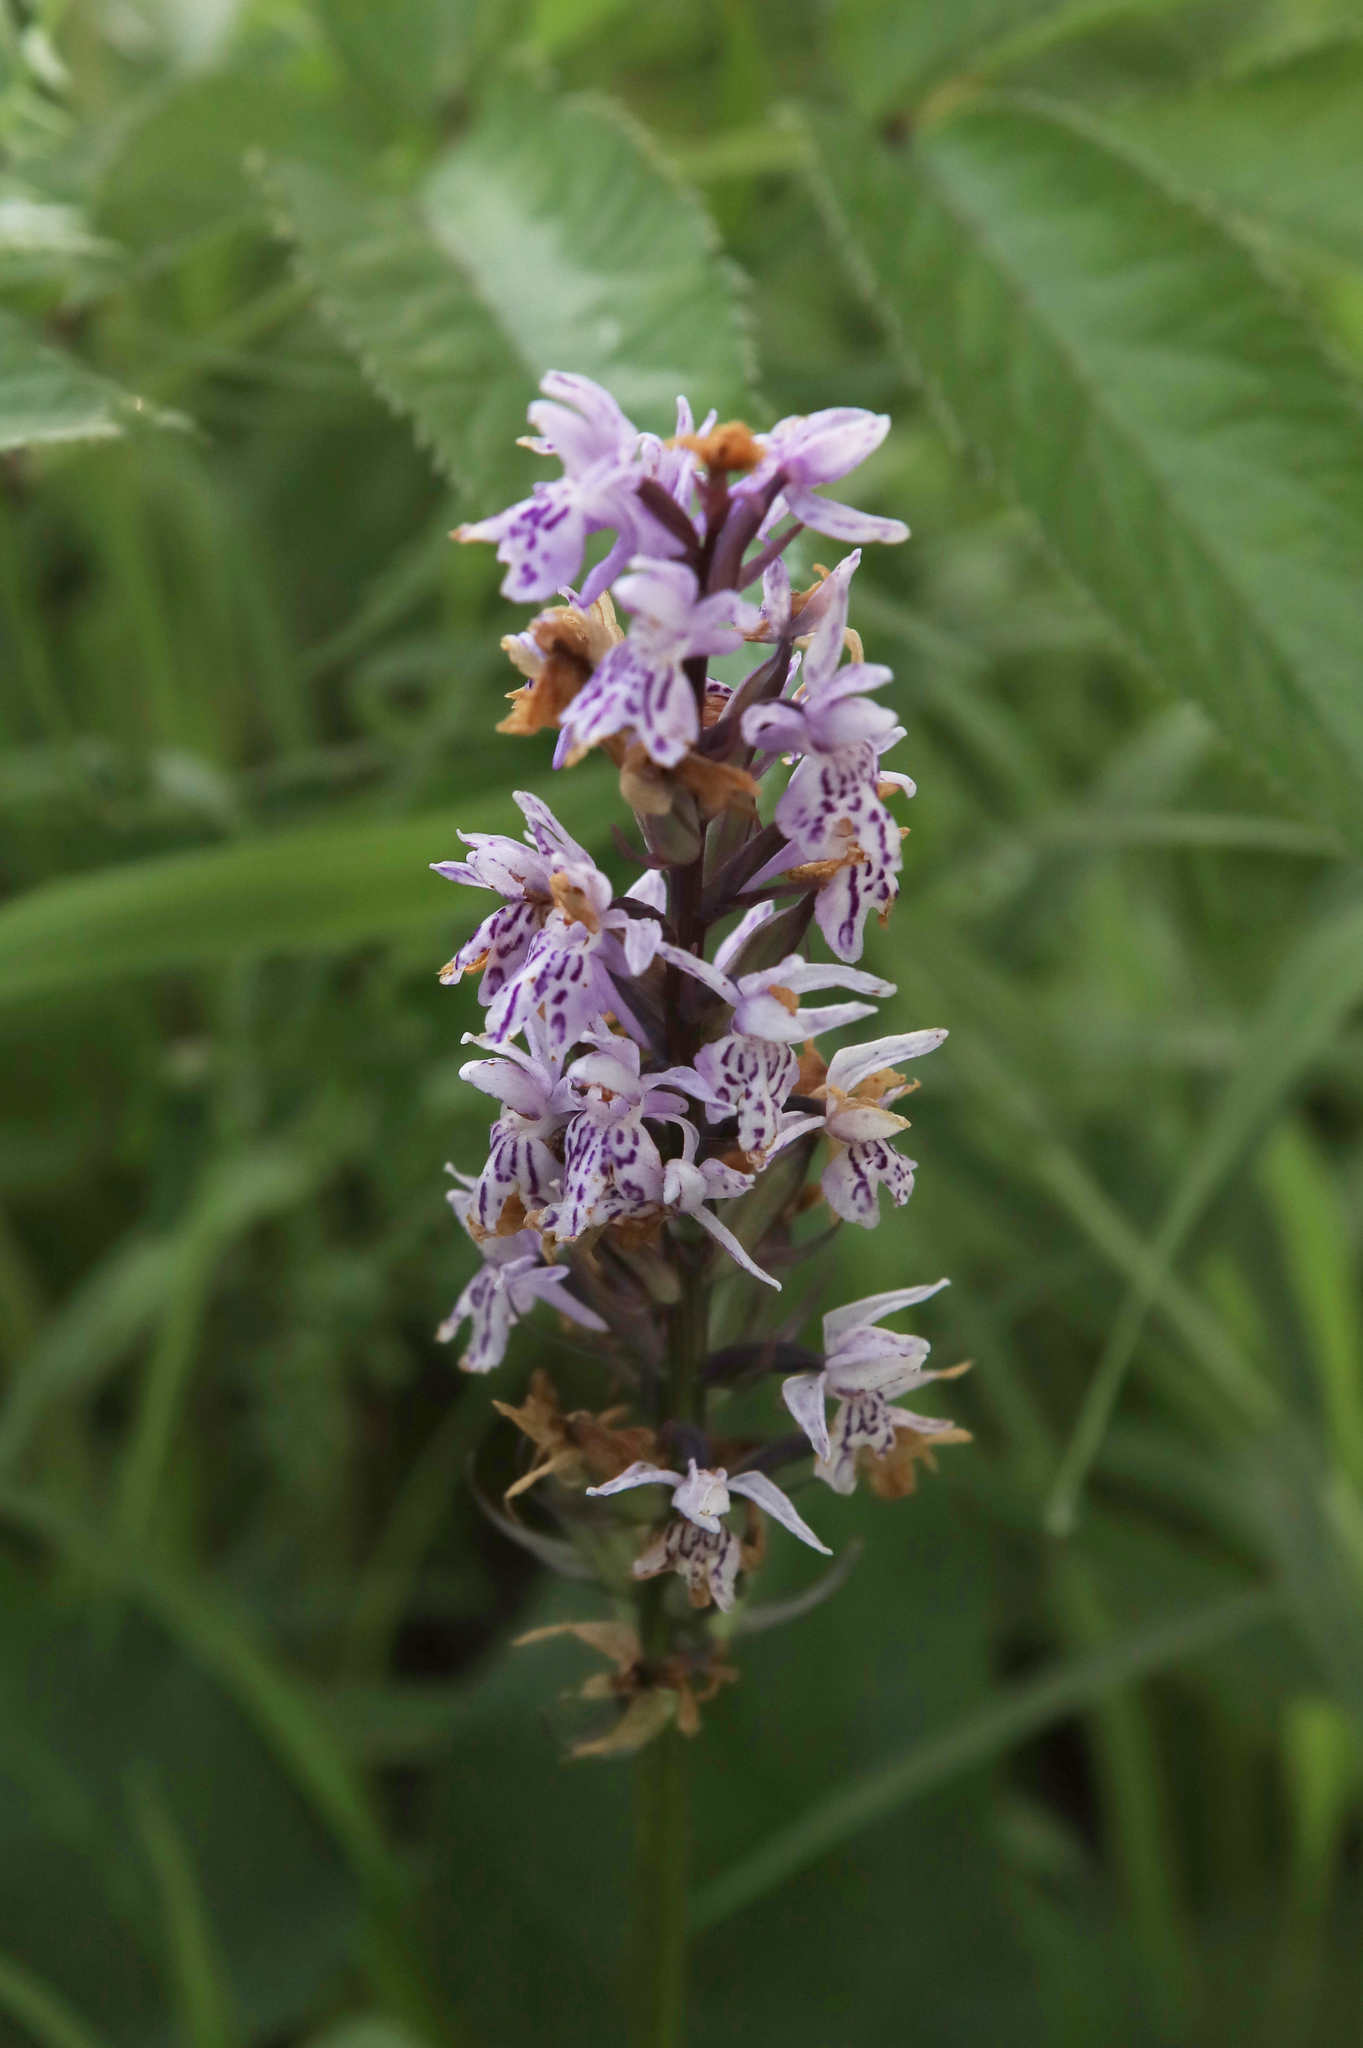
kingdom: Plantae
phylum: Tracheophyta
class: Liliopsida
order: Asparagales
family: Orchidaceae
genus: Dactylorhiza
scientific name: Dactylorhiza maculata
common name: Heath spotted-orchid
